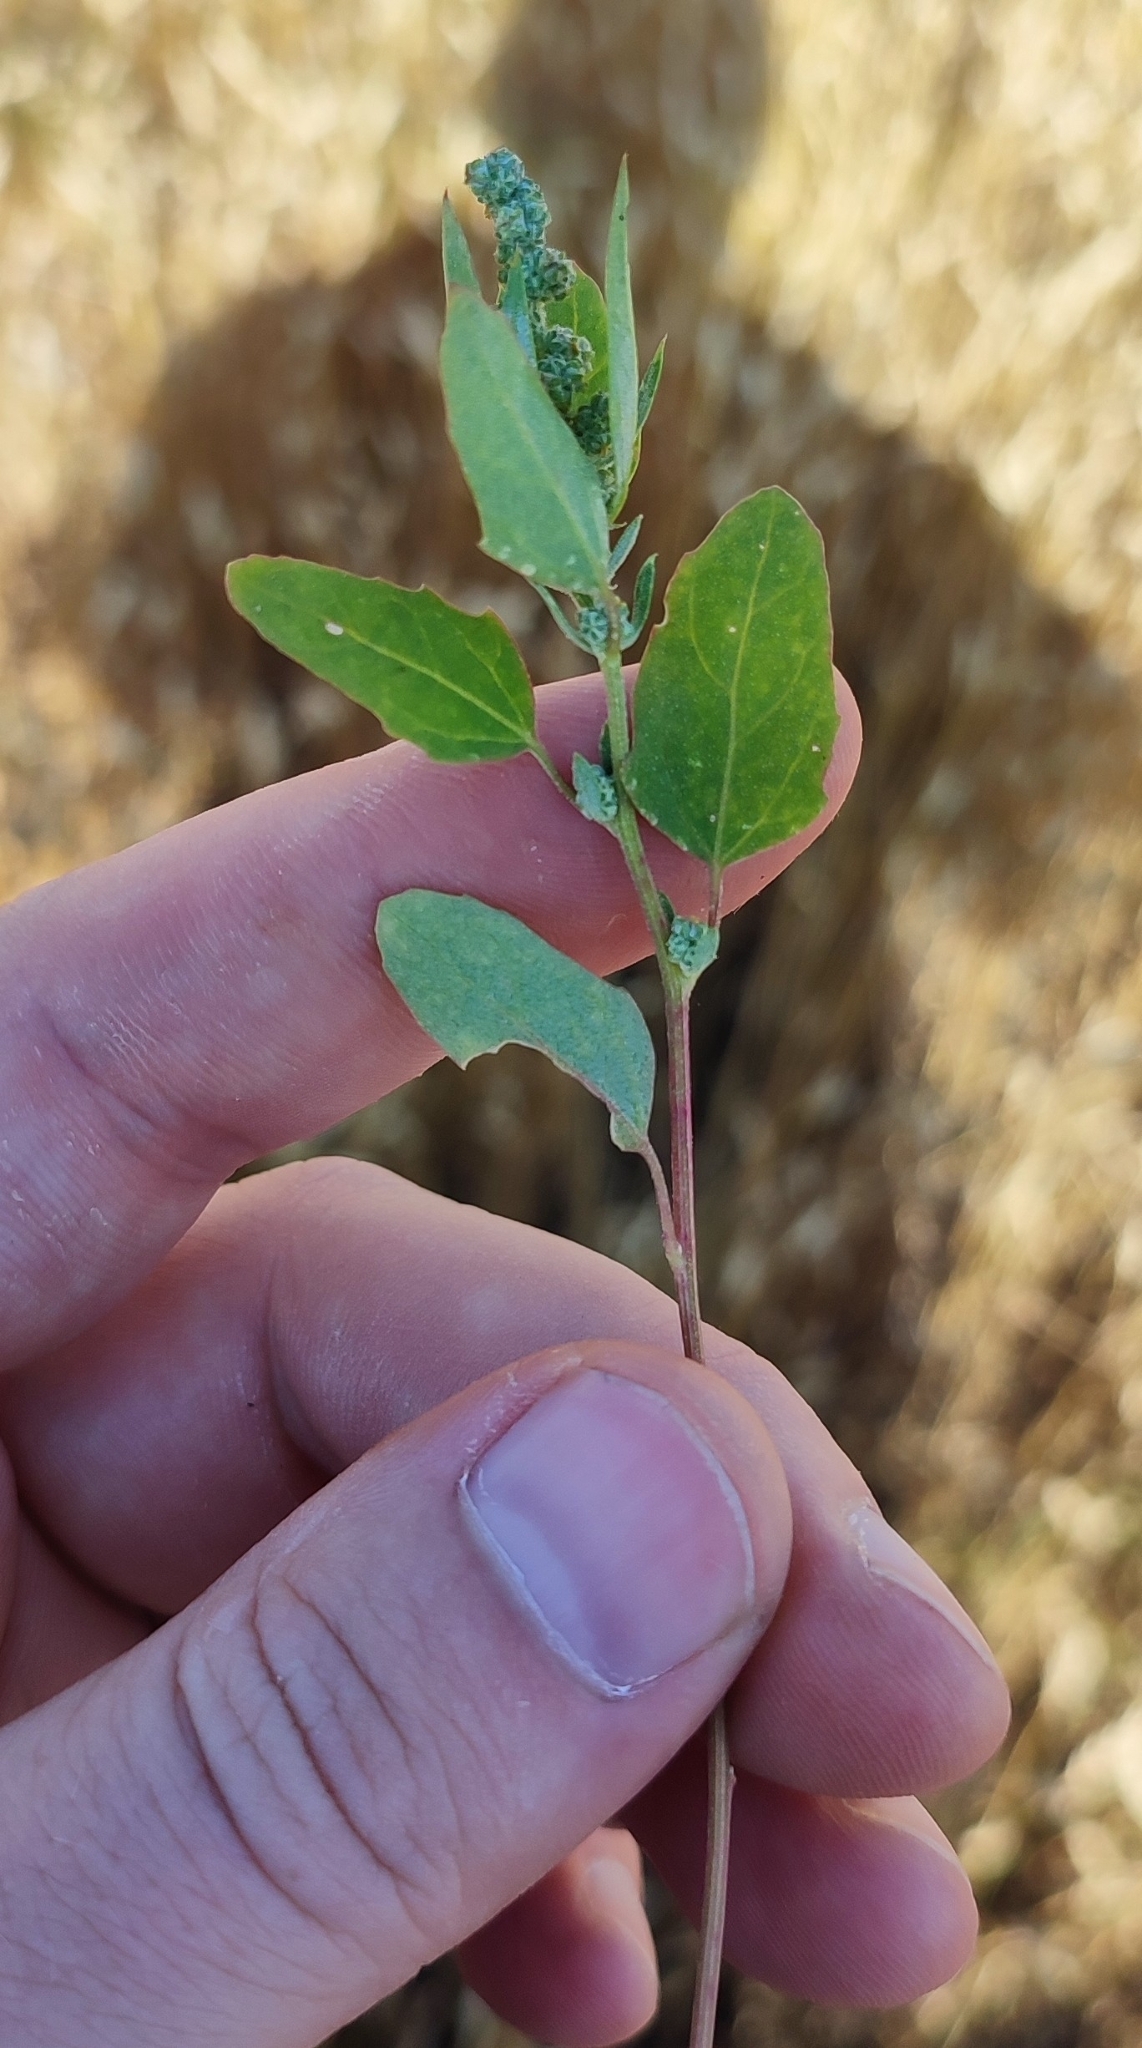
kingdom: Plantae
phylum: Tracheophyta
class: Magnoliopsida
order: Caryophyllales
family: Amaranthaceae
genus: Chenopodium
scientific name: Chenopodium album
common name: Fat-hen
